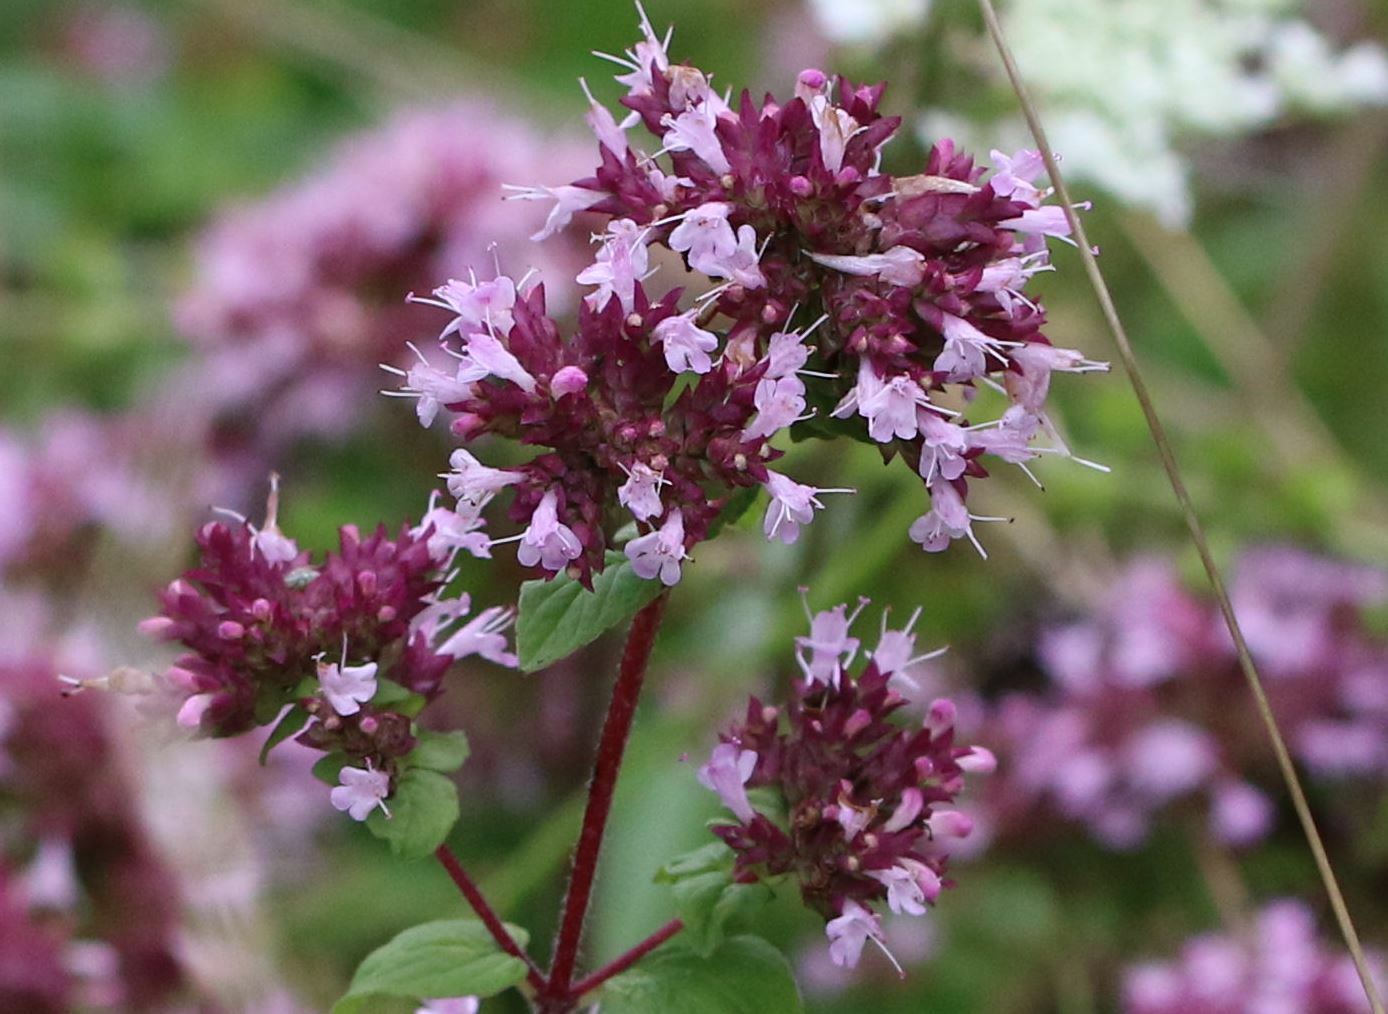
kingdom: Plantae
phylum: Tracheophyta
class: Magnoliopsida
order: Lamiales
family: Lamiaceae
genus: Origanum
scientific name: Origanum vulgare
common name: Wild marjoram
